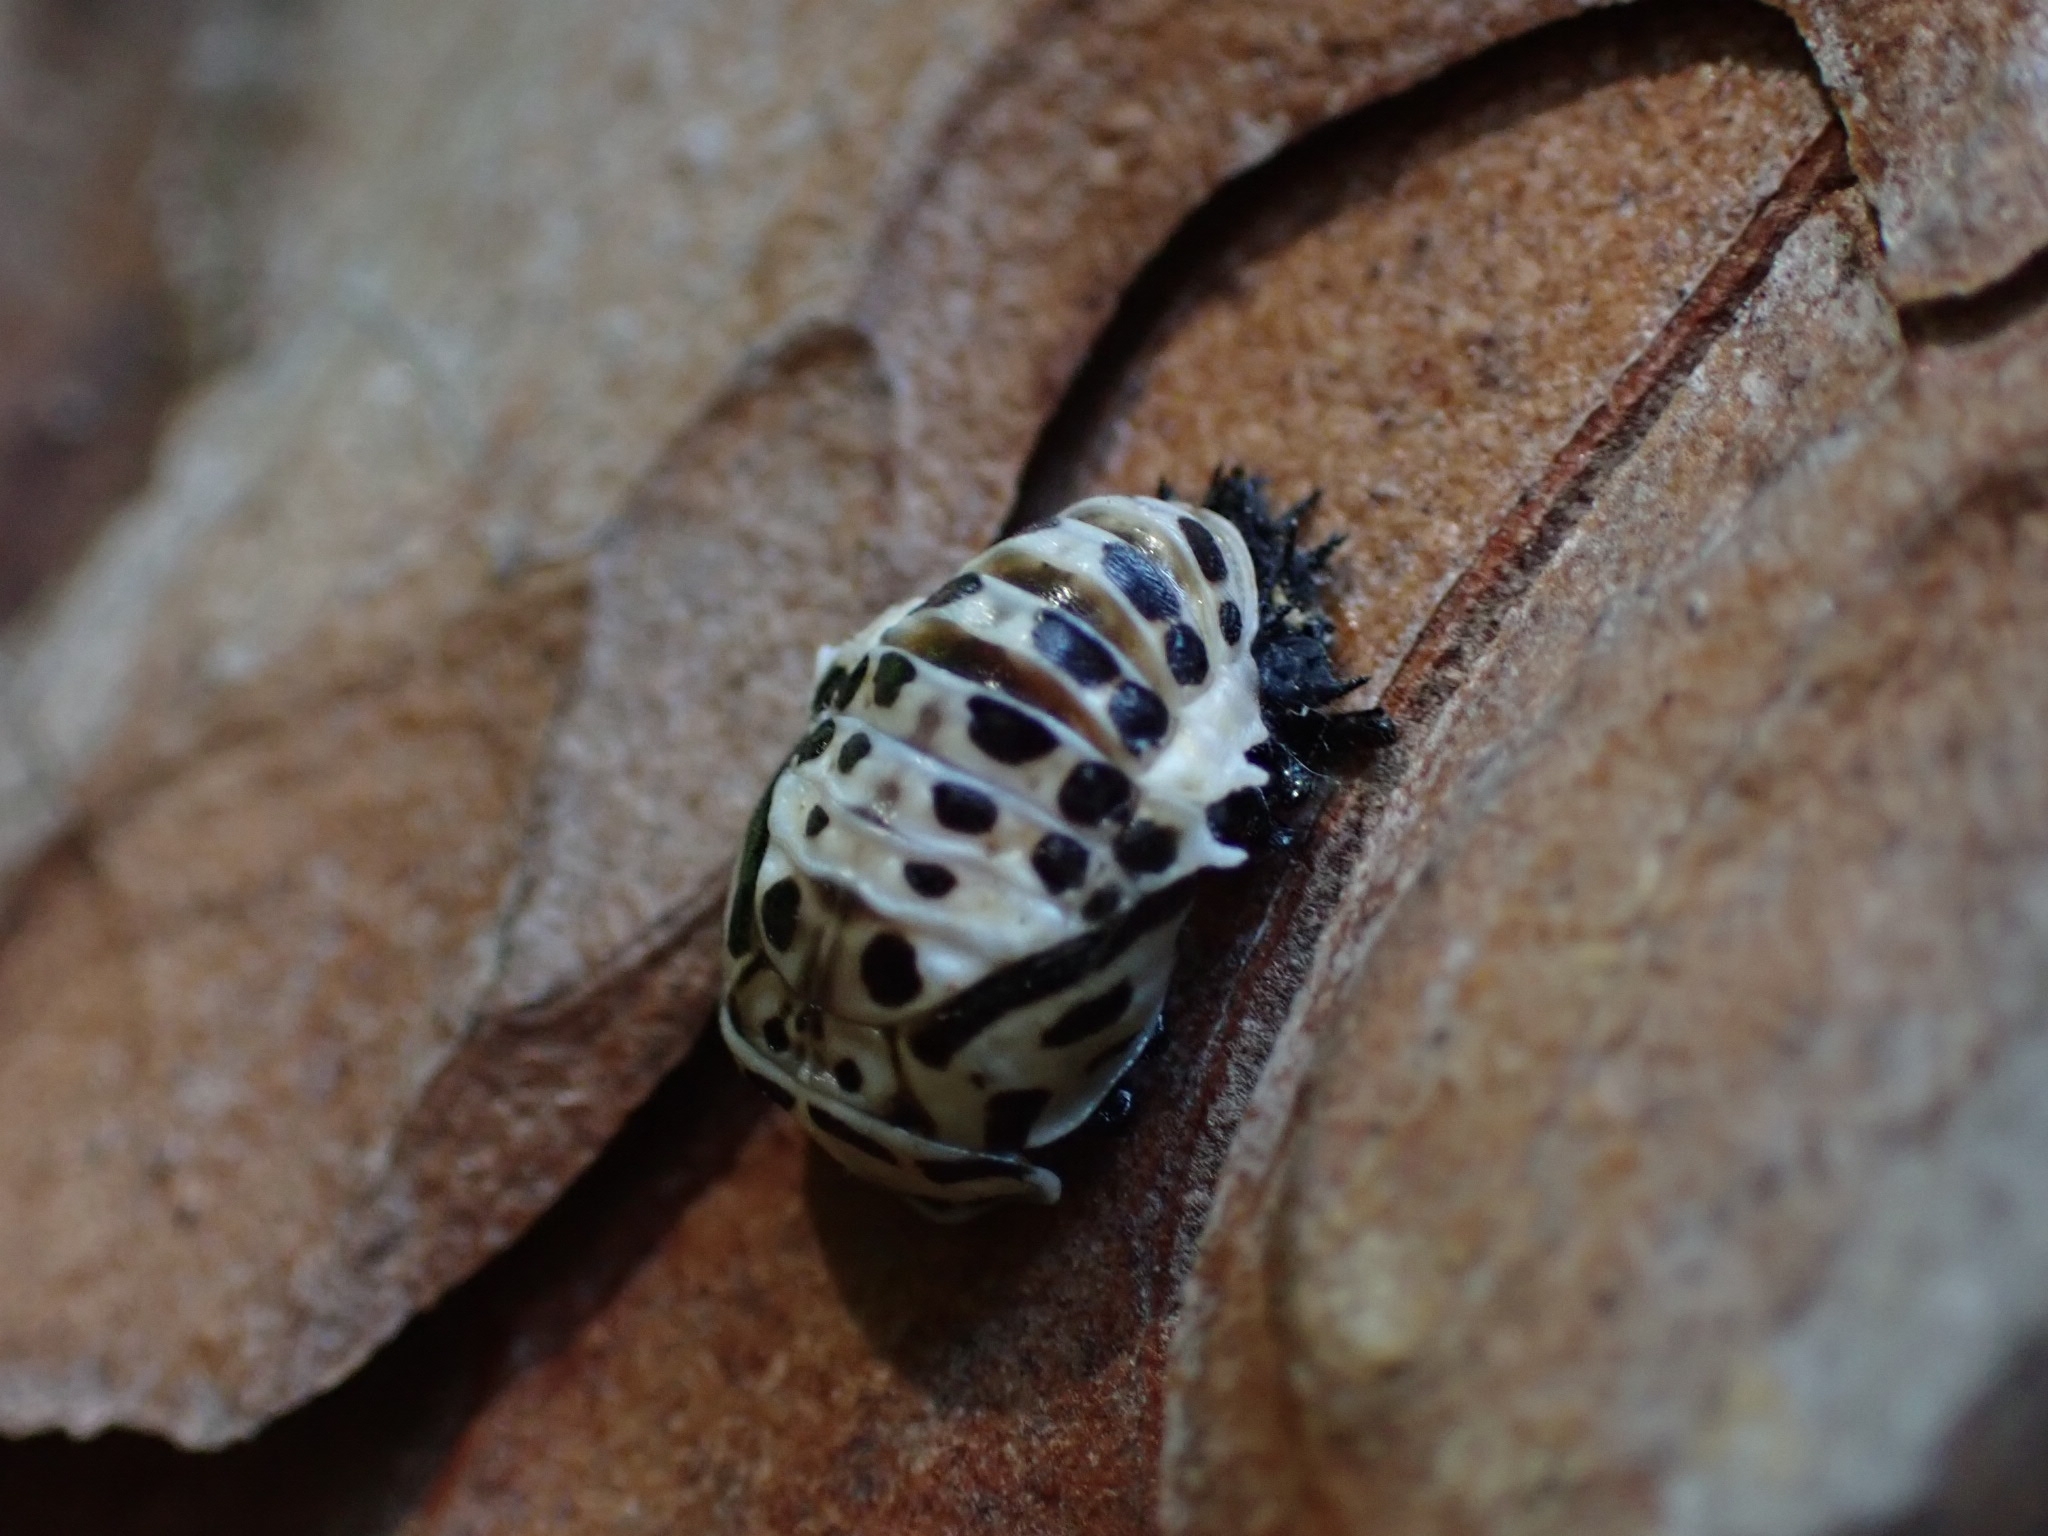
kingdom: Animalia
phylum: Arthropoda
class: Insecta
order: Coleoptera
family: Coccinellidae
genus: Anatis
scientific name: Anatis ocellata
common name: Eyed ladybird
